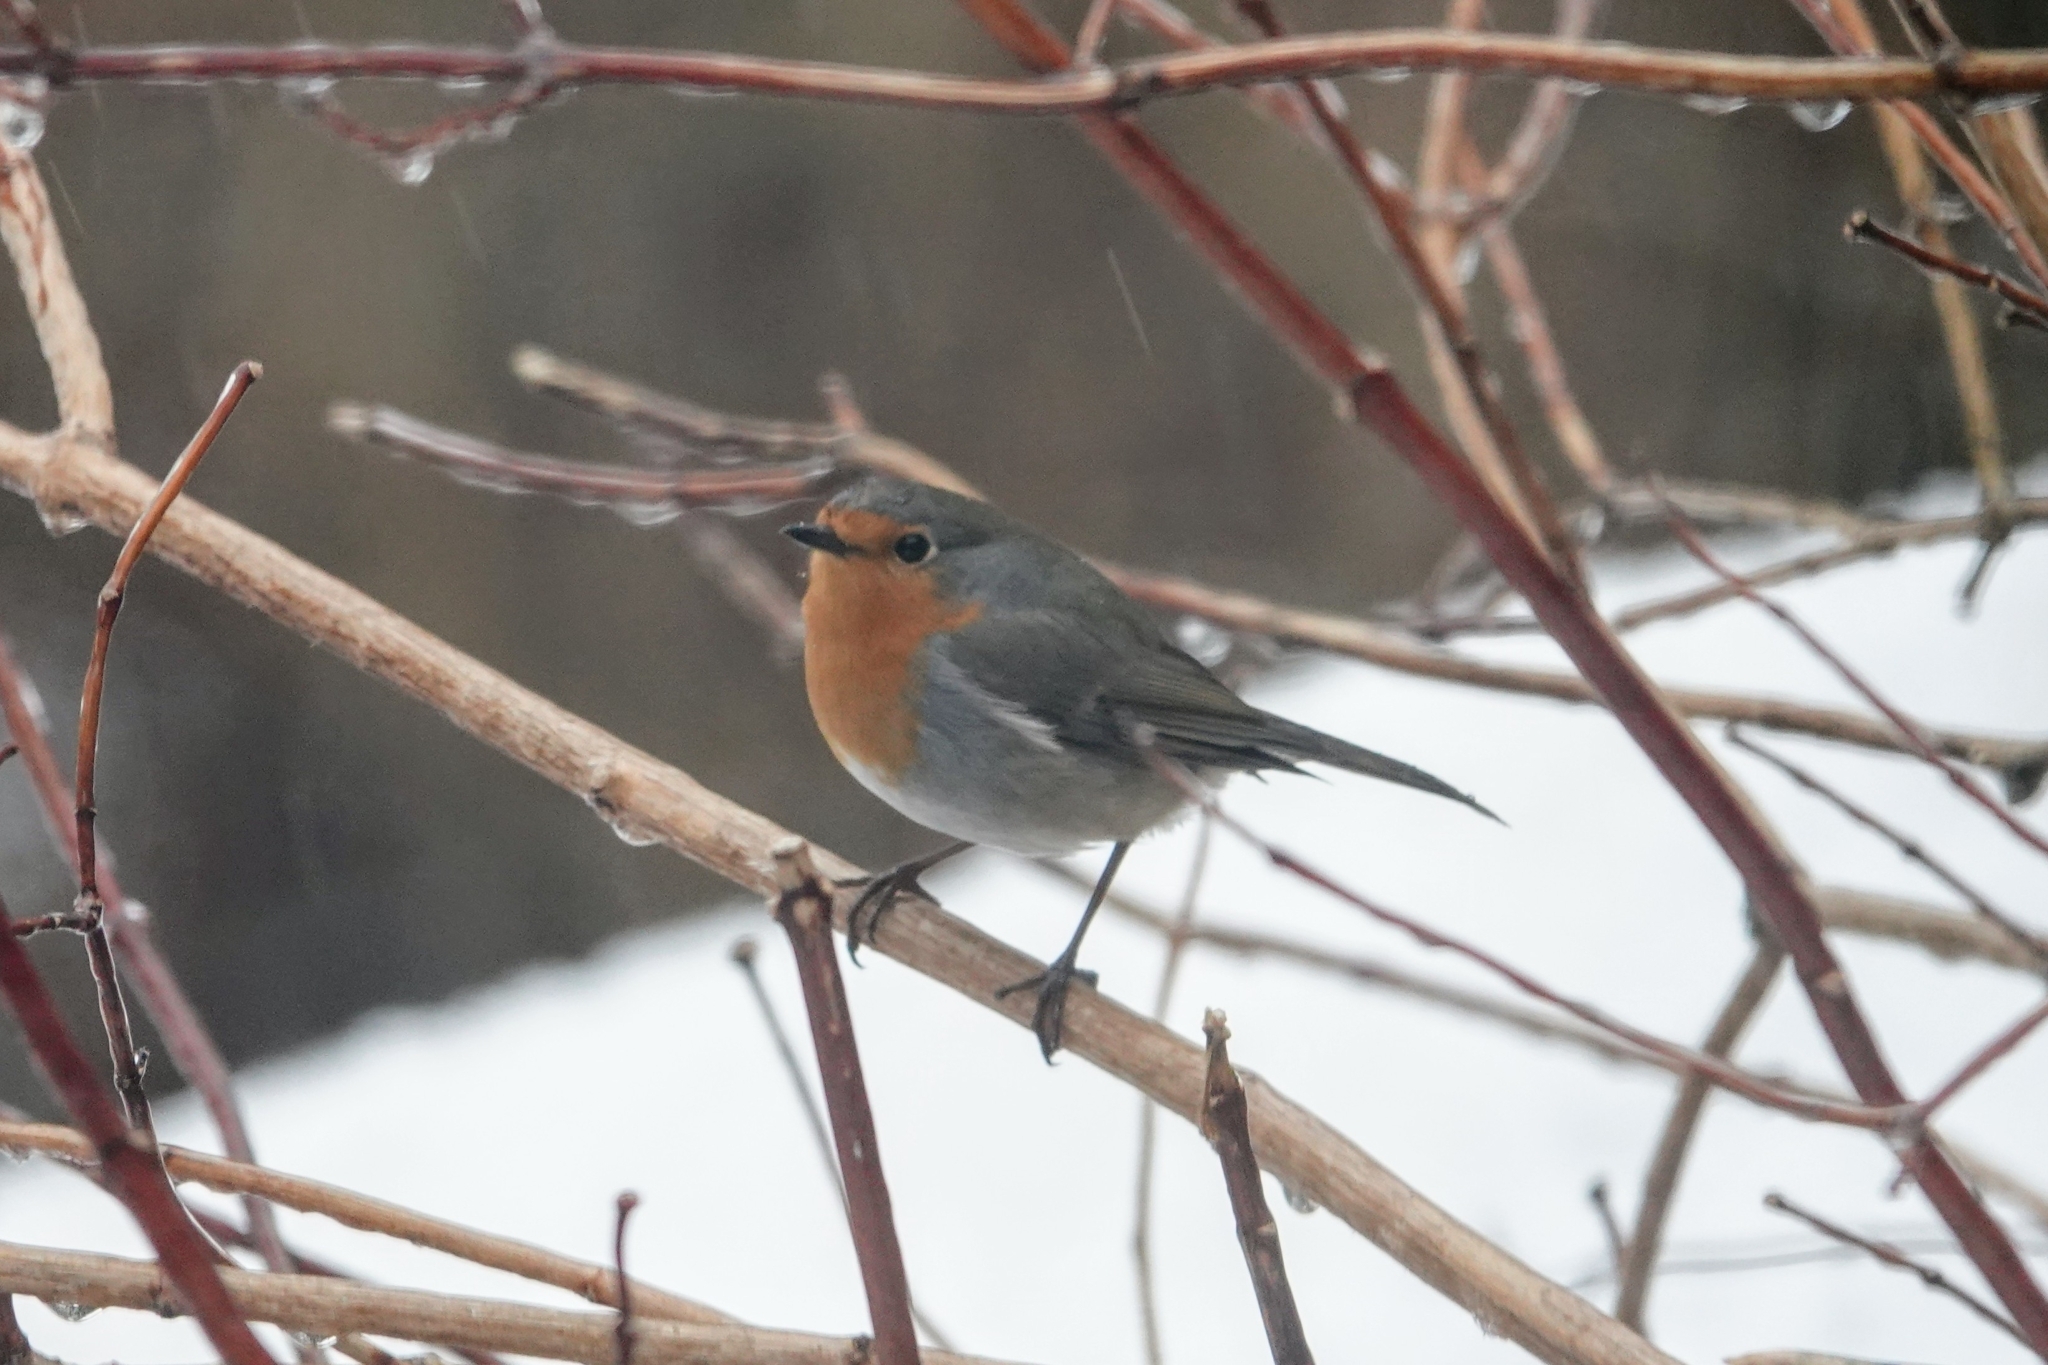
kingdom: Animalia
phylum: Chordata
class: Aves
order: Passeriformes
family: Muscicapidae
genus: Erithacus
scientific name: Erithacus rubecula
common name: European robin
